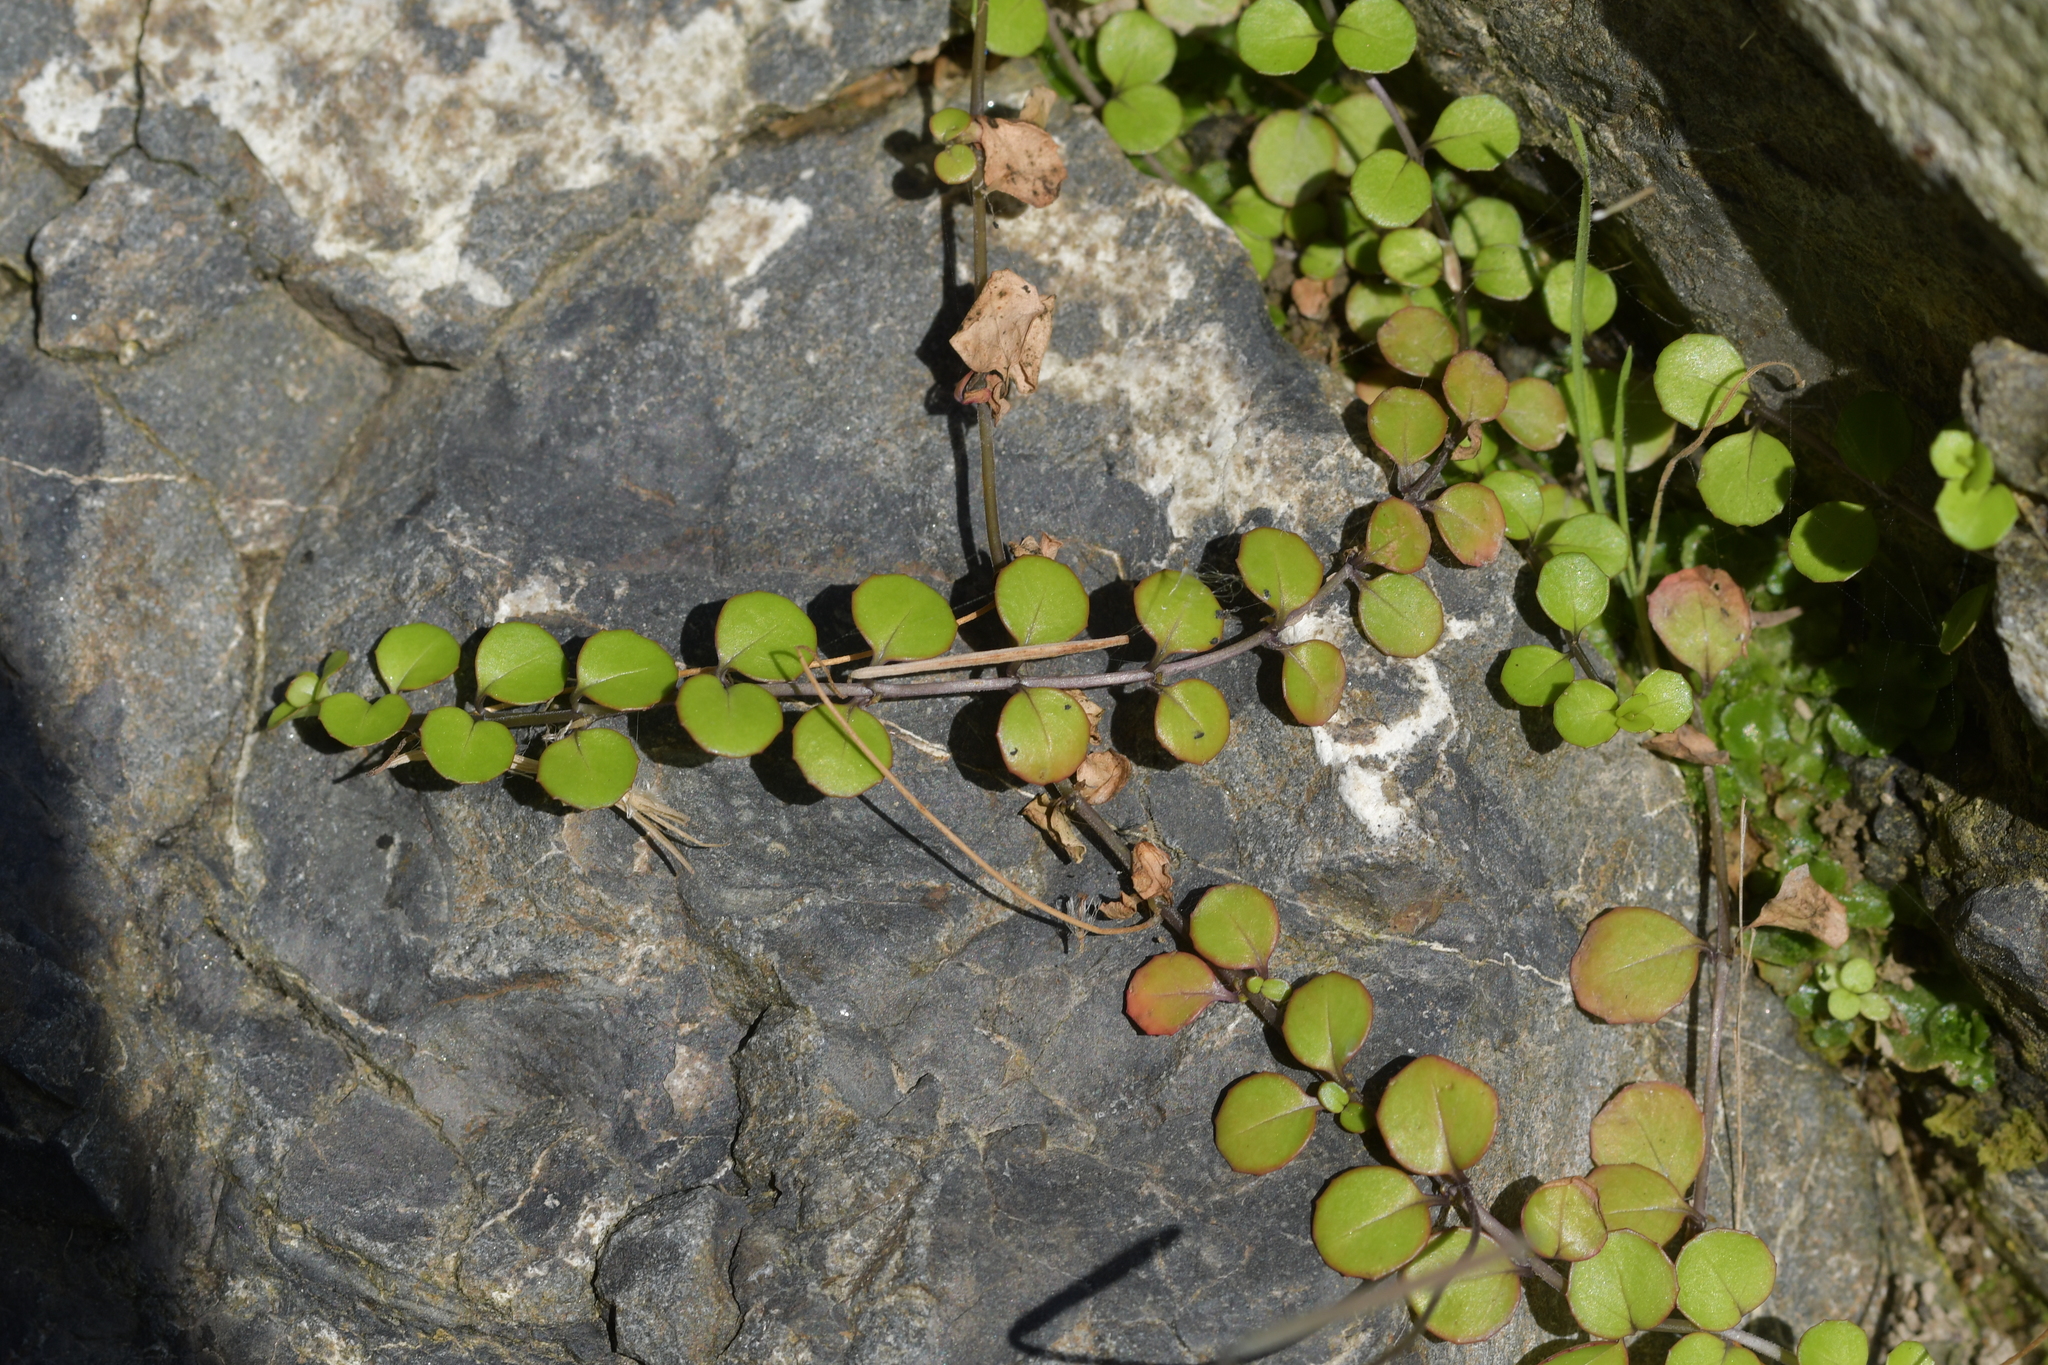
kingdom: Plantae
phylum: Tracheophyta
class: Magnoliopsida
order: Myrtales
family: Onagraceae
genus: Epilobium
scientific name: Epilobium nummularifolium
